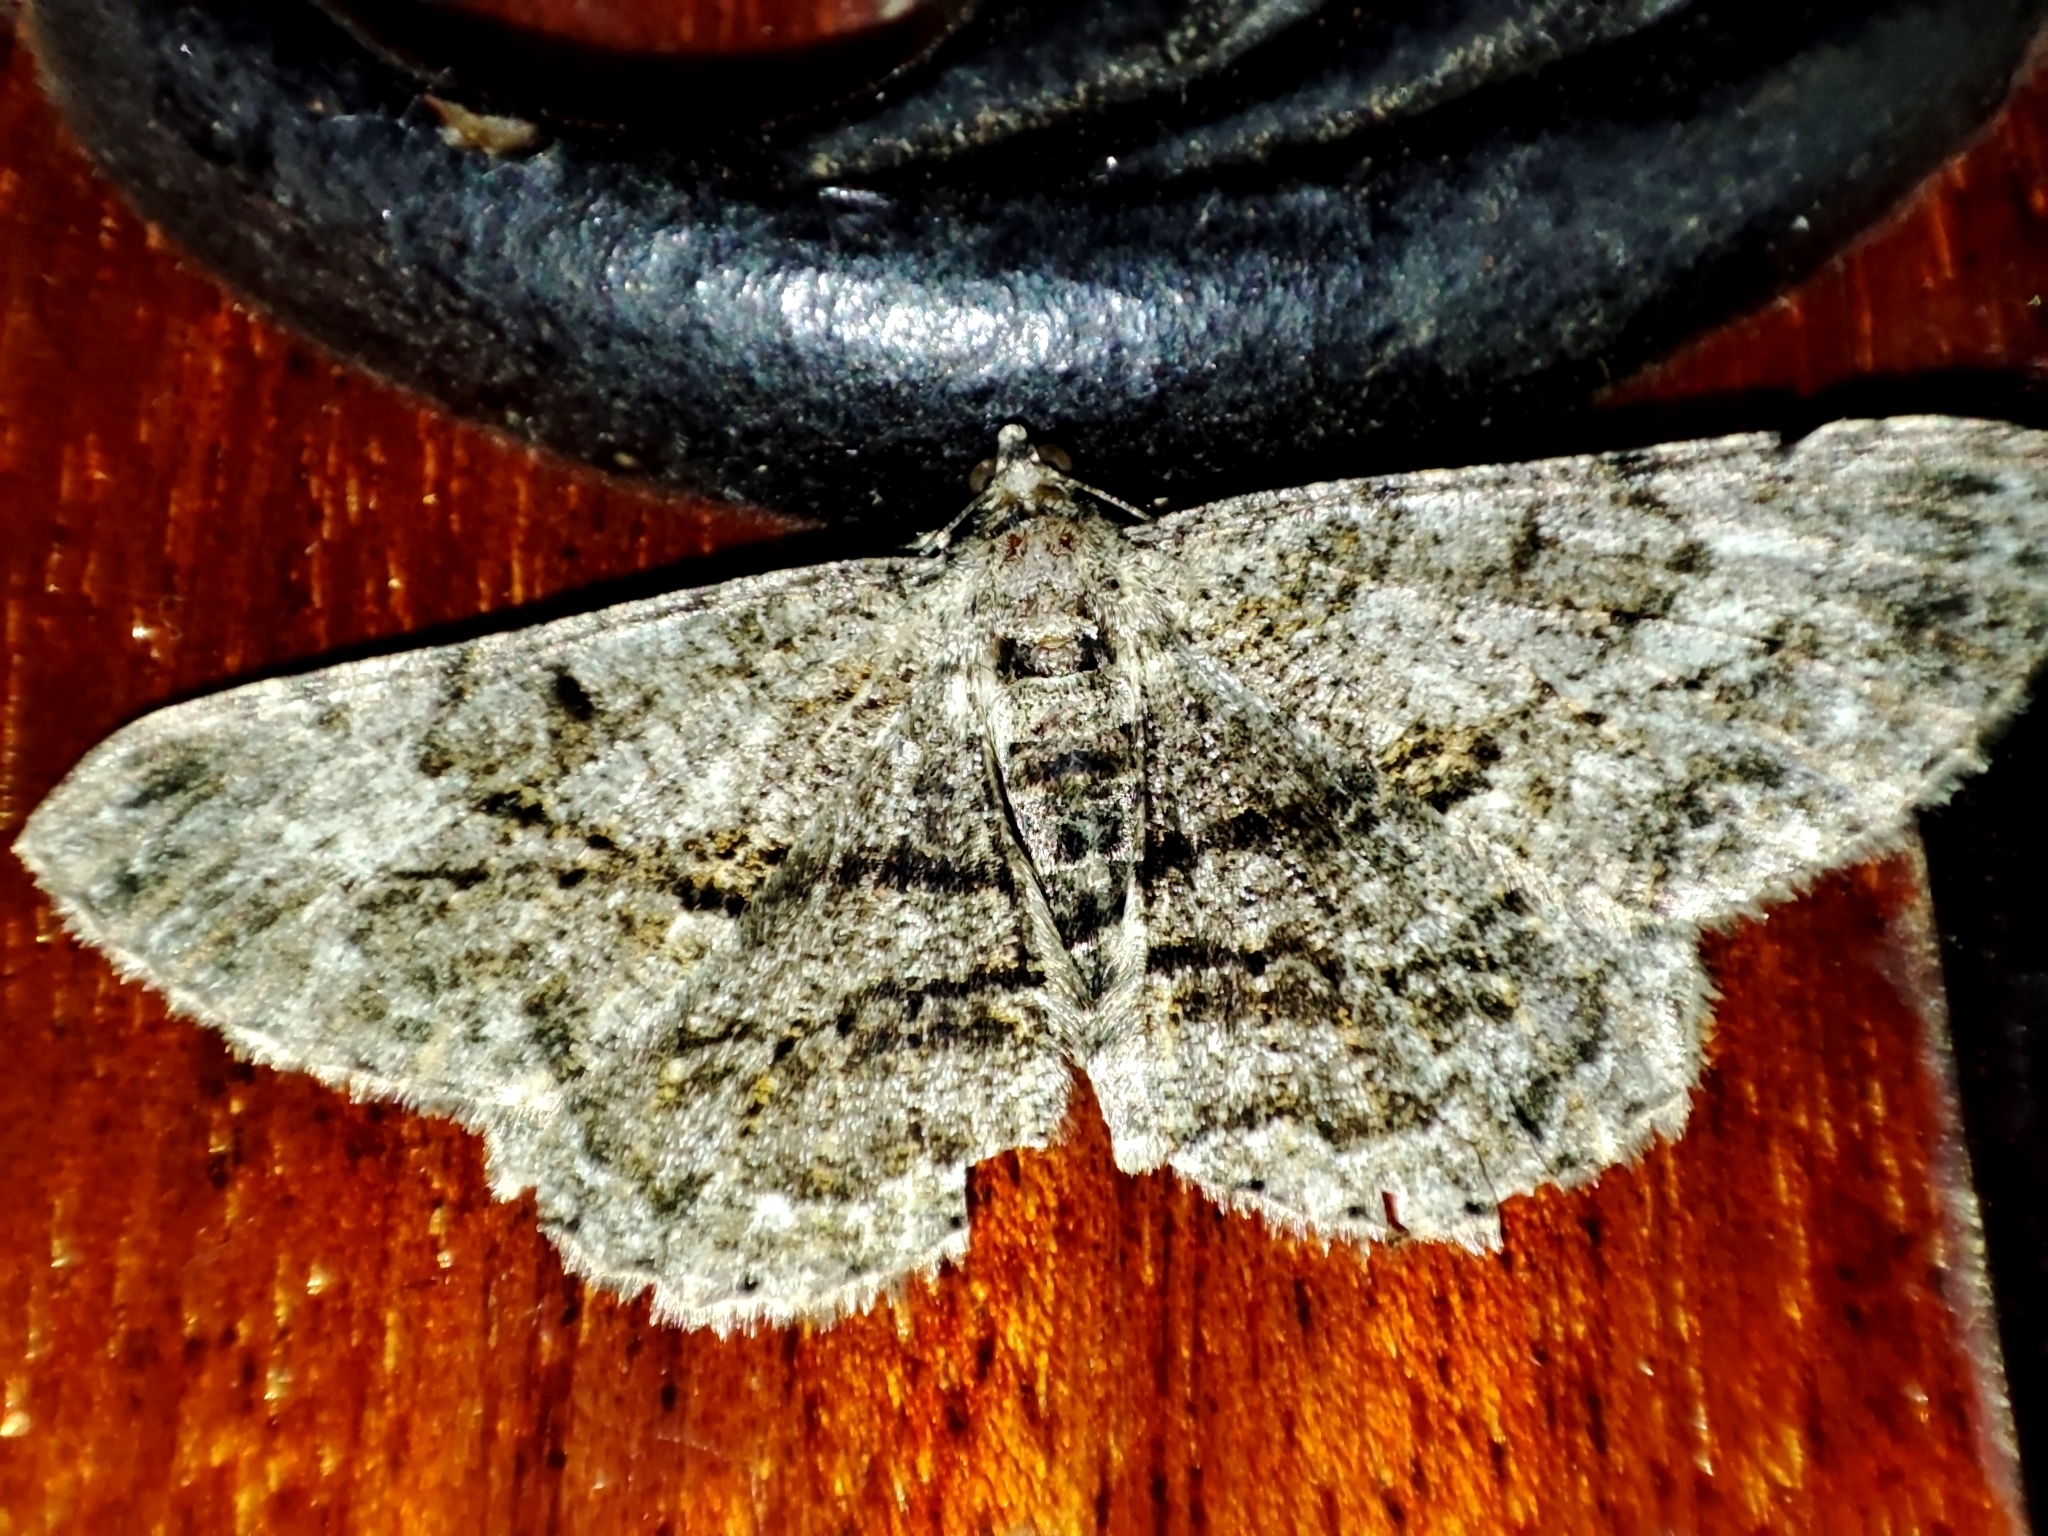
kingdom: Animalia
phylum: Arthropoda
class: Insecta
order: Lepidoptera
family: Geometridae
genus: Peribatodes
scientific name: Peribatodes rhomboidaria
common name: Willow beauty
